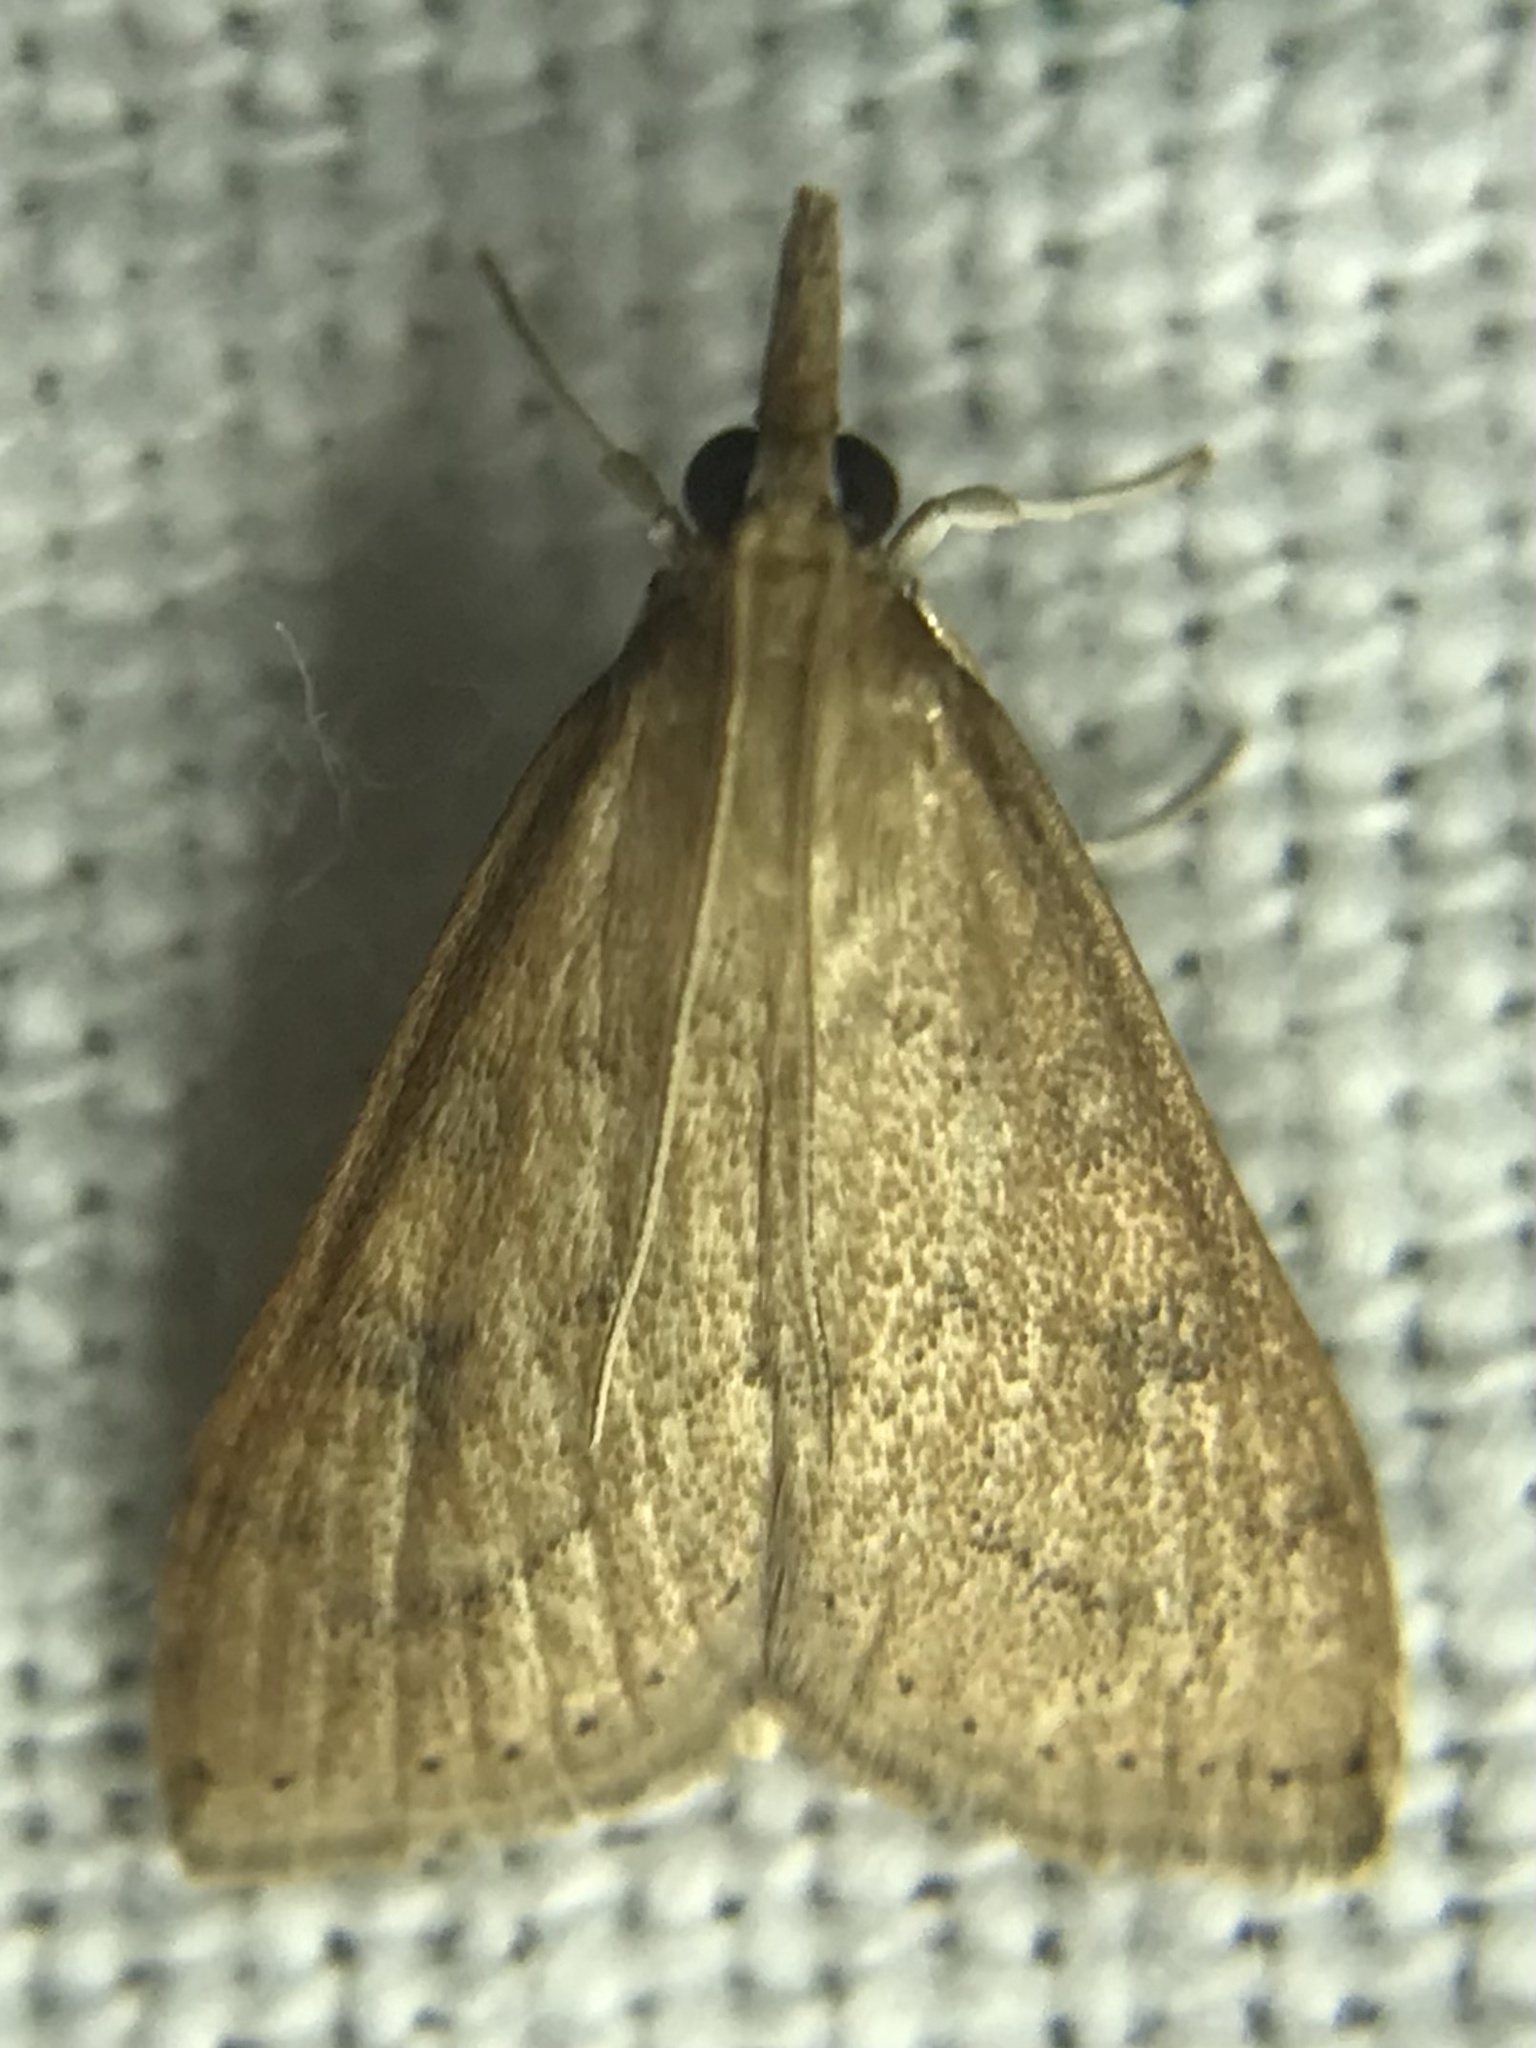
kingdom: Animalia
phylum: Arthropoda
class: Insecta
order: Lepidoptera
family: Crambidae
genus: Udea
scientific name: Udea rubigalis
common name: Celery leaftier moth
